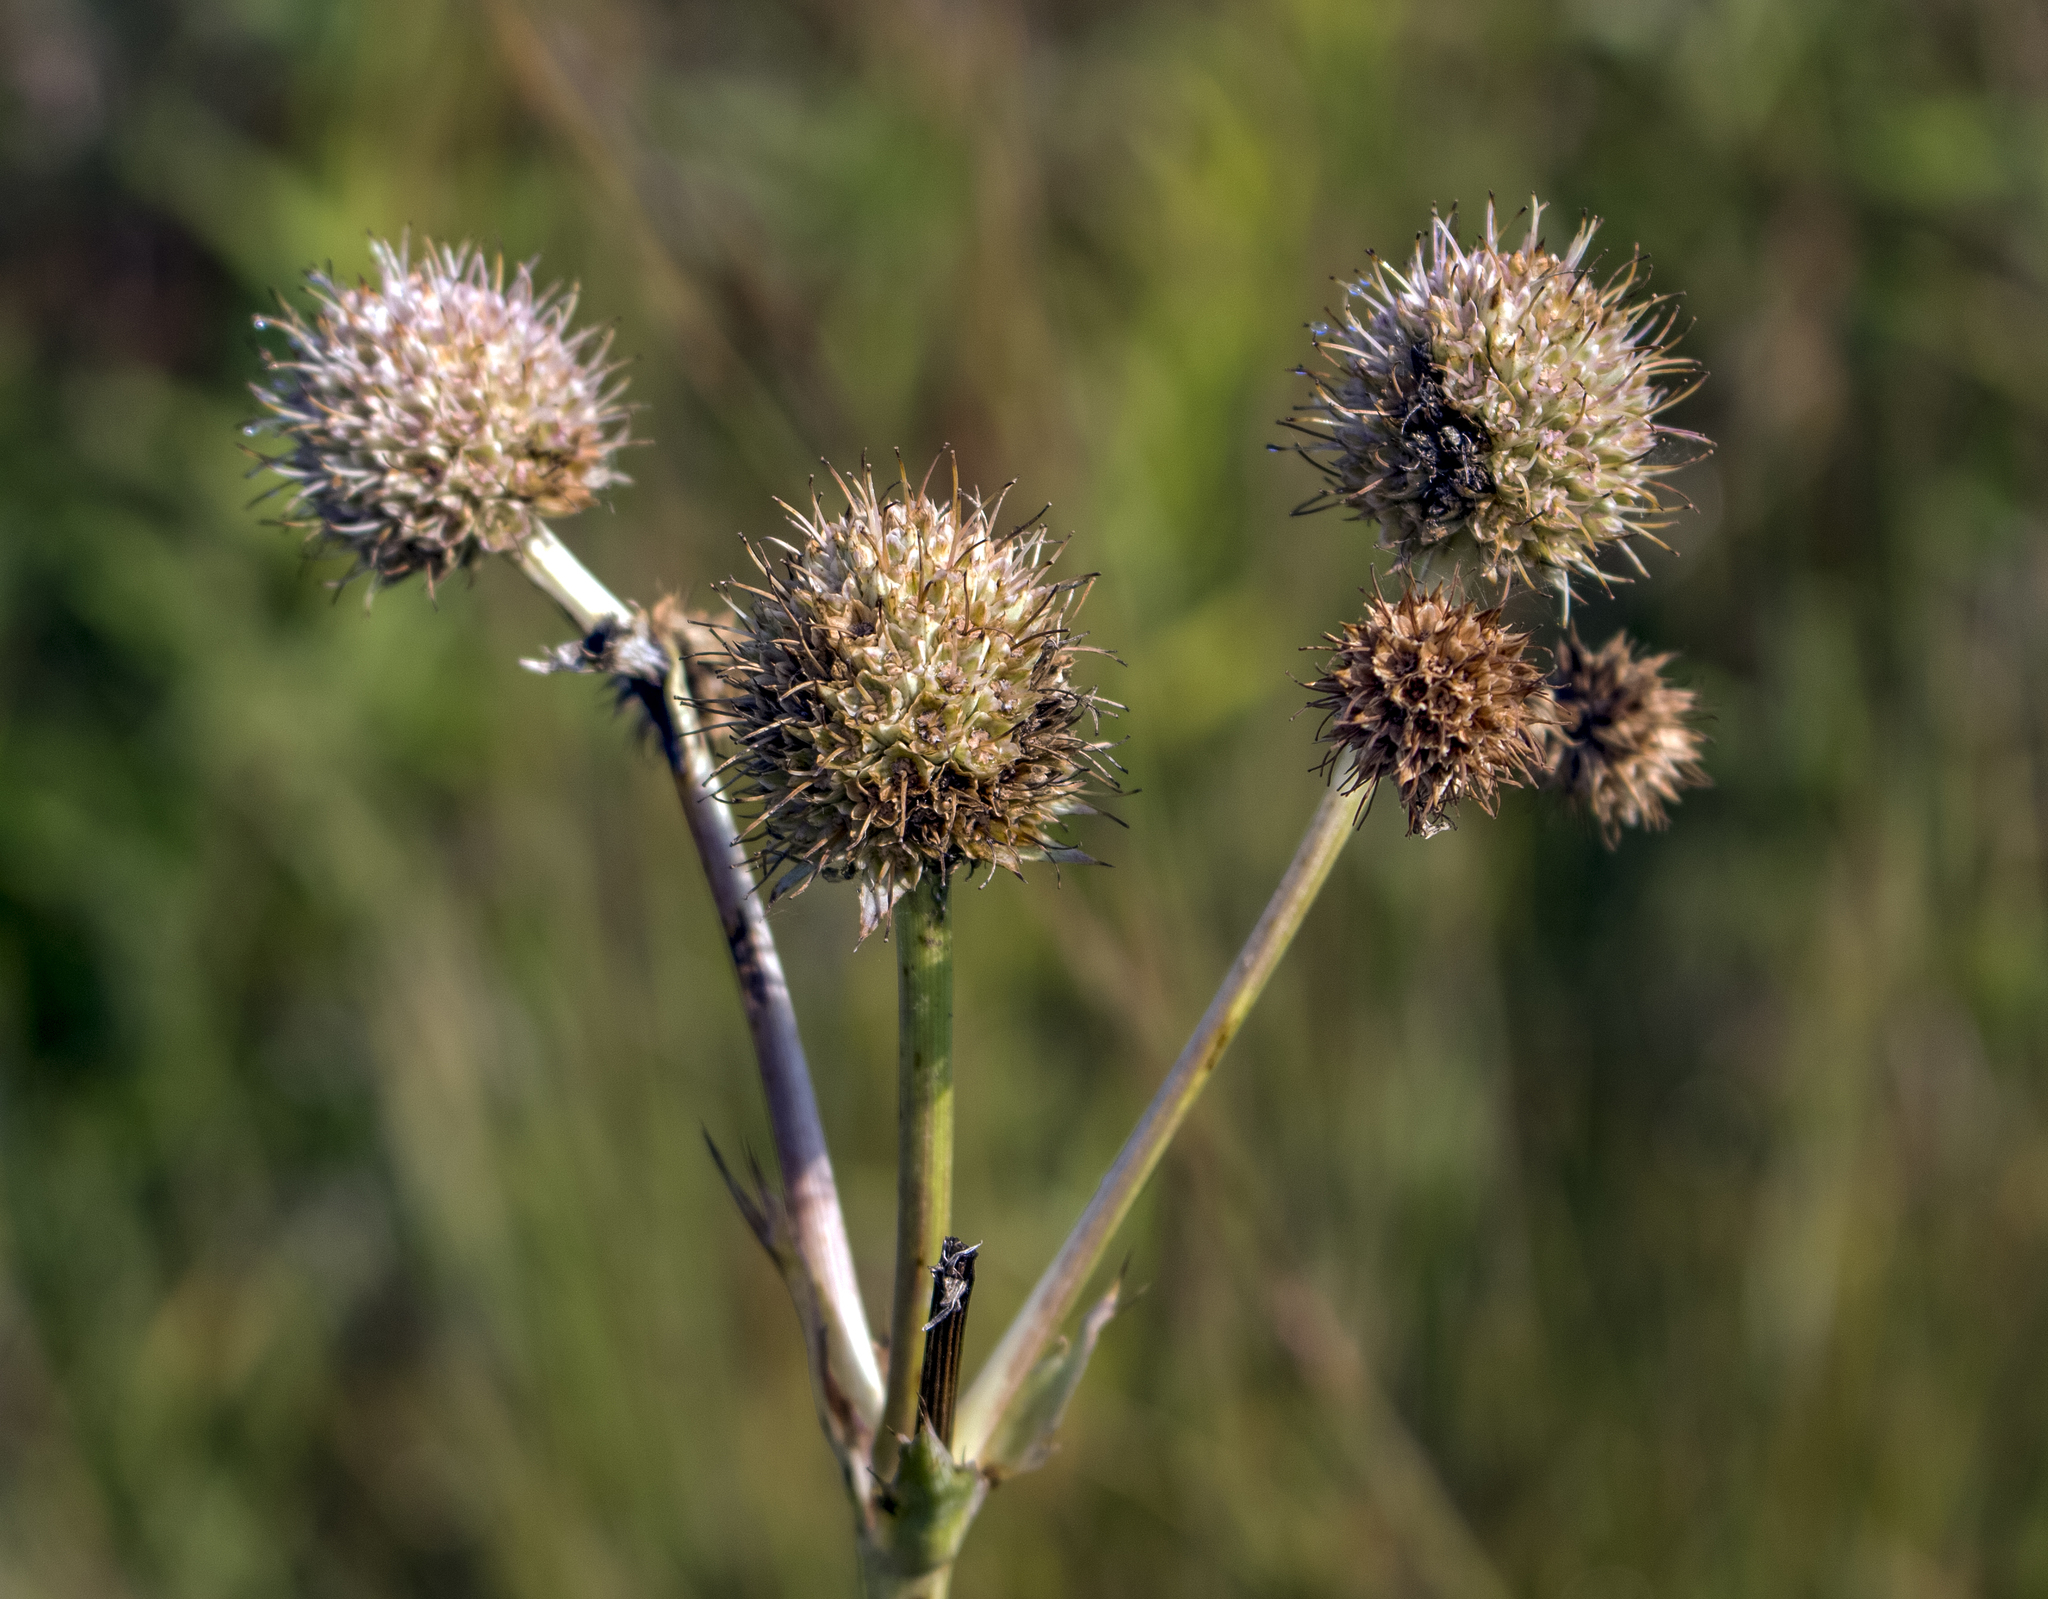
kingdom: Plantae
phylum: Tracheophyta
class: Magnoliopsida
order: Apiales
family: Apiaceae
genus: Eryngium
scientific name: Eryngium yuccifolium
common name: Button eryngo
